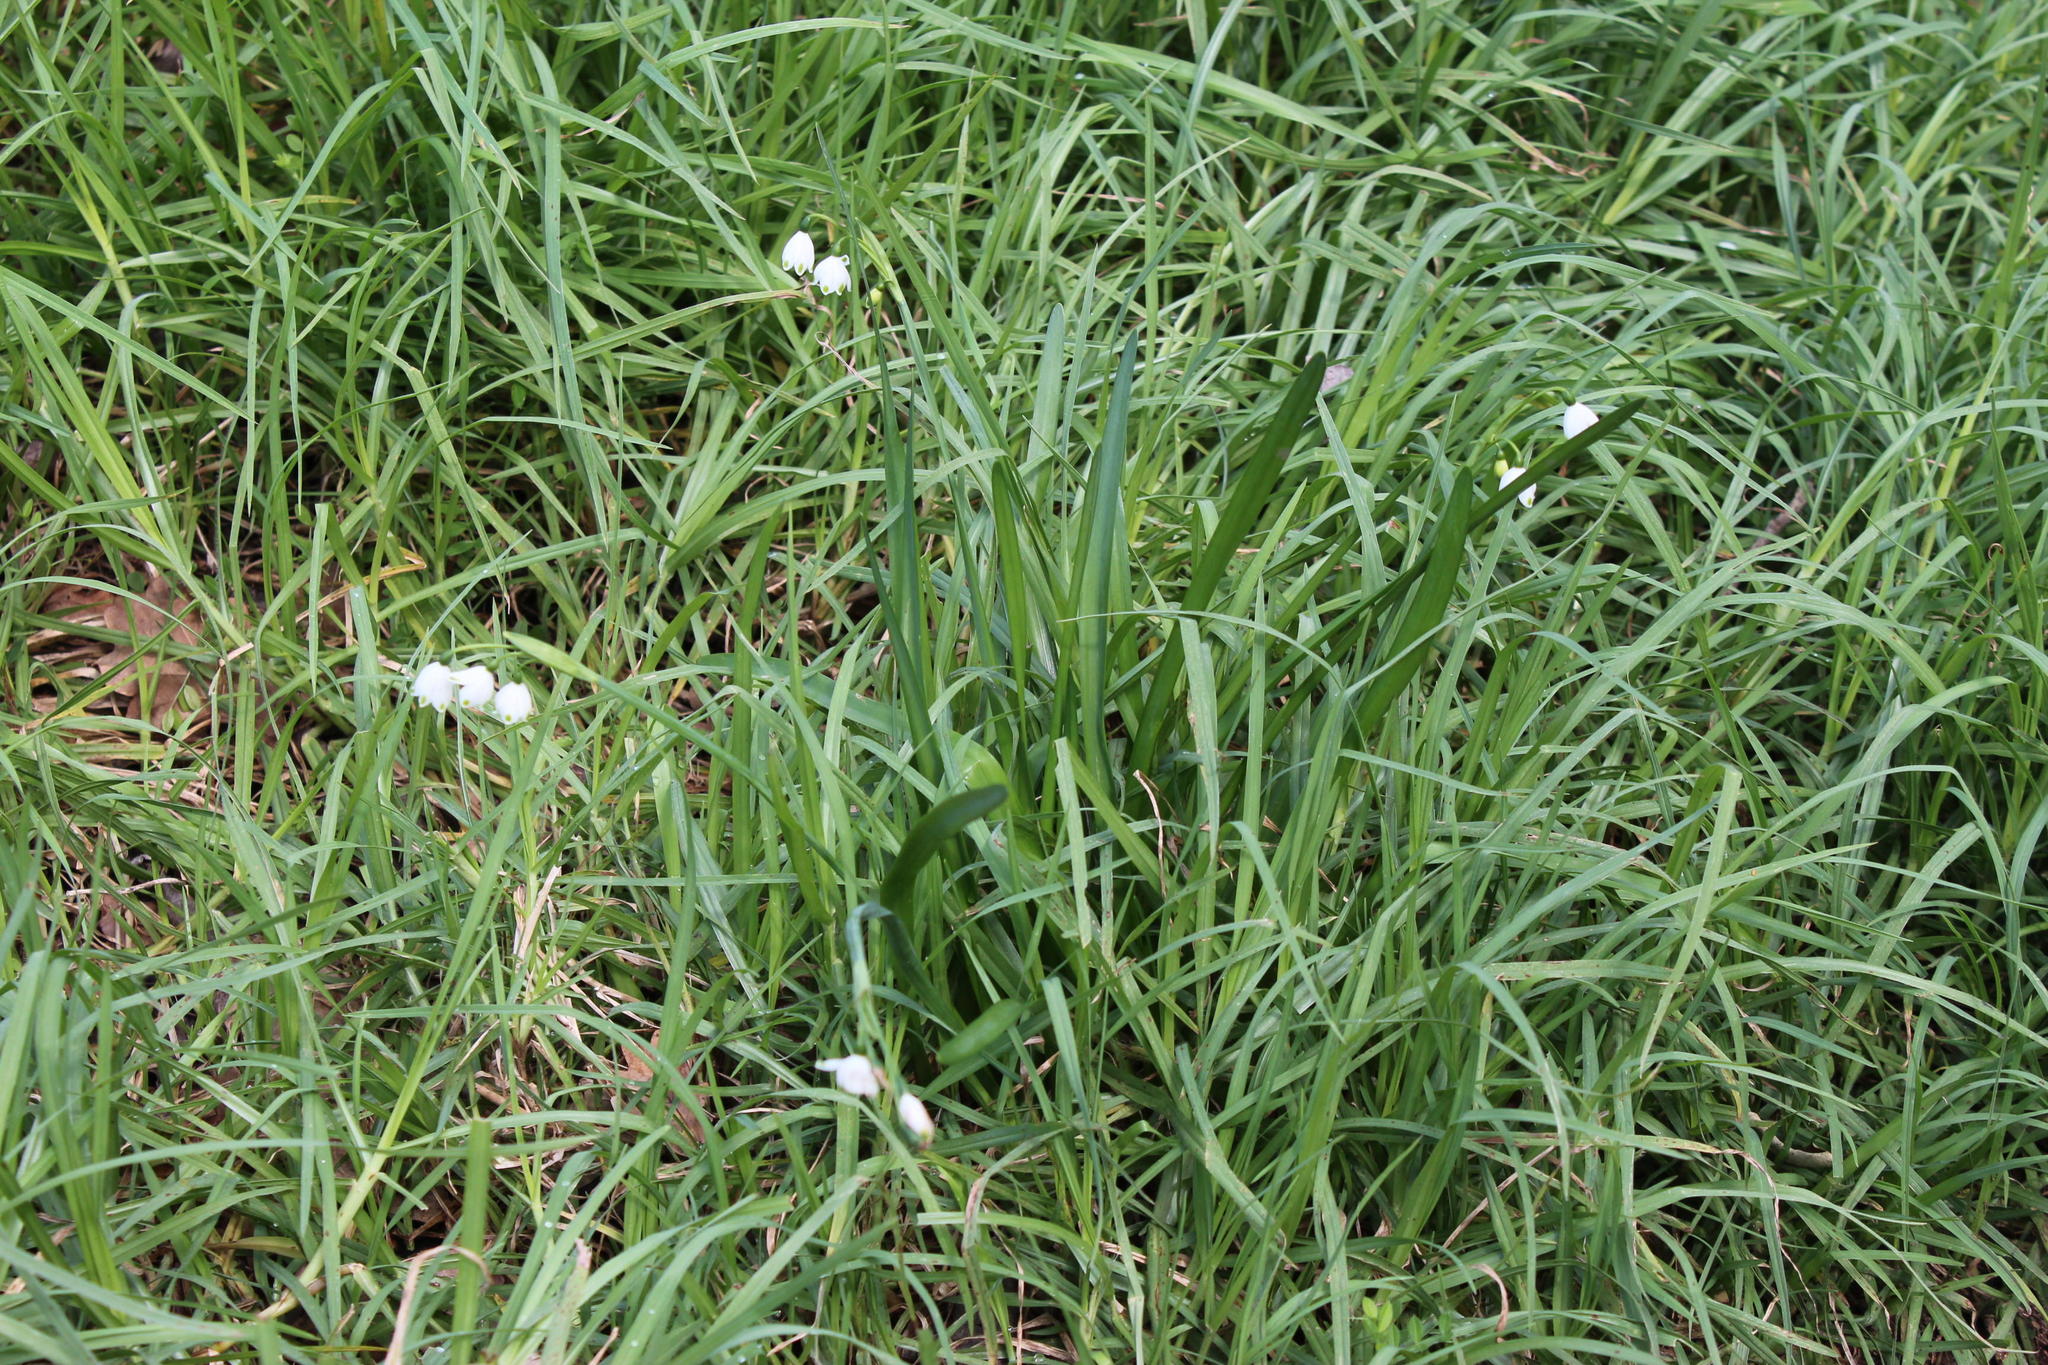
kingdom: Plantae
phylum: Tracheophyta
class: Liliopsida
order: Asparagales
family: Amaryllidaceae
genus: Leucojum
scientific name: Leucojum aestivum
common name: Summer snowflake
